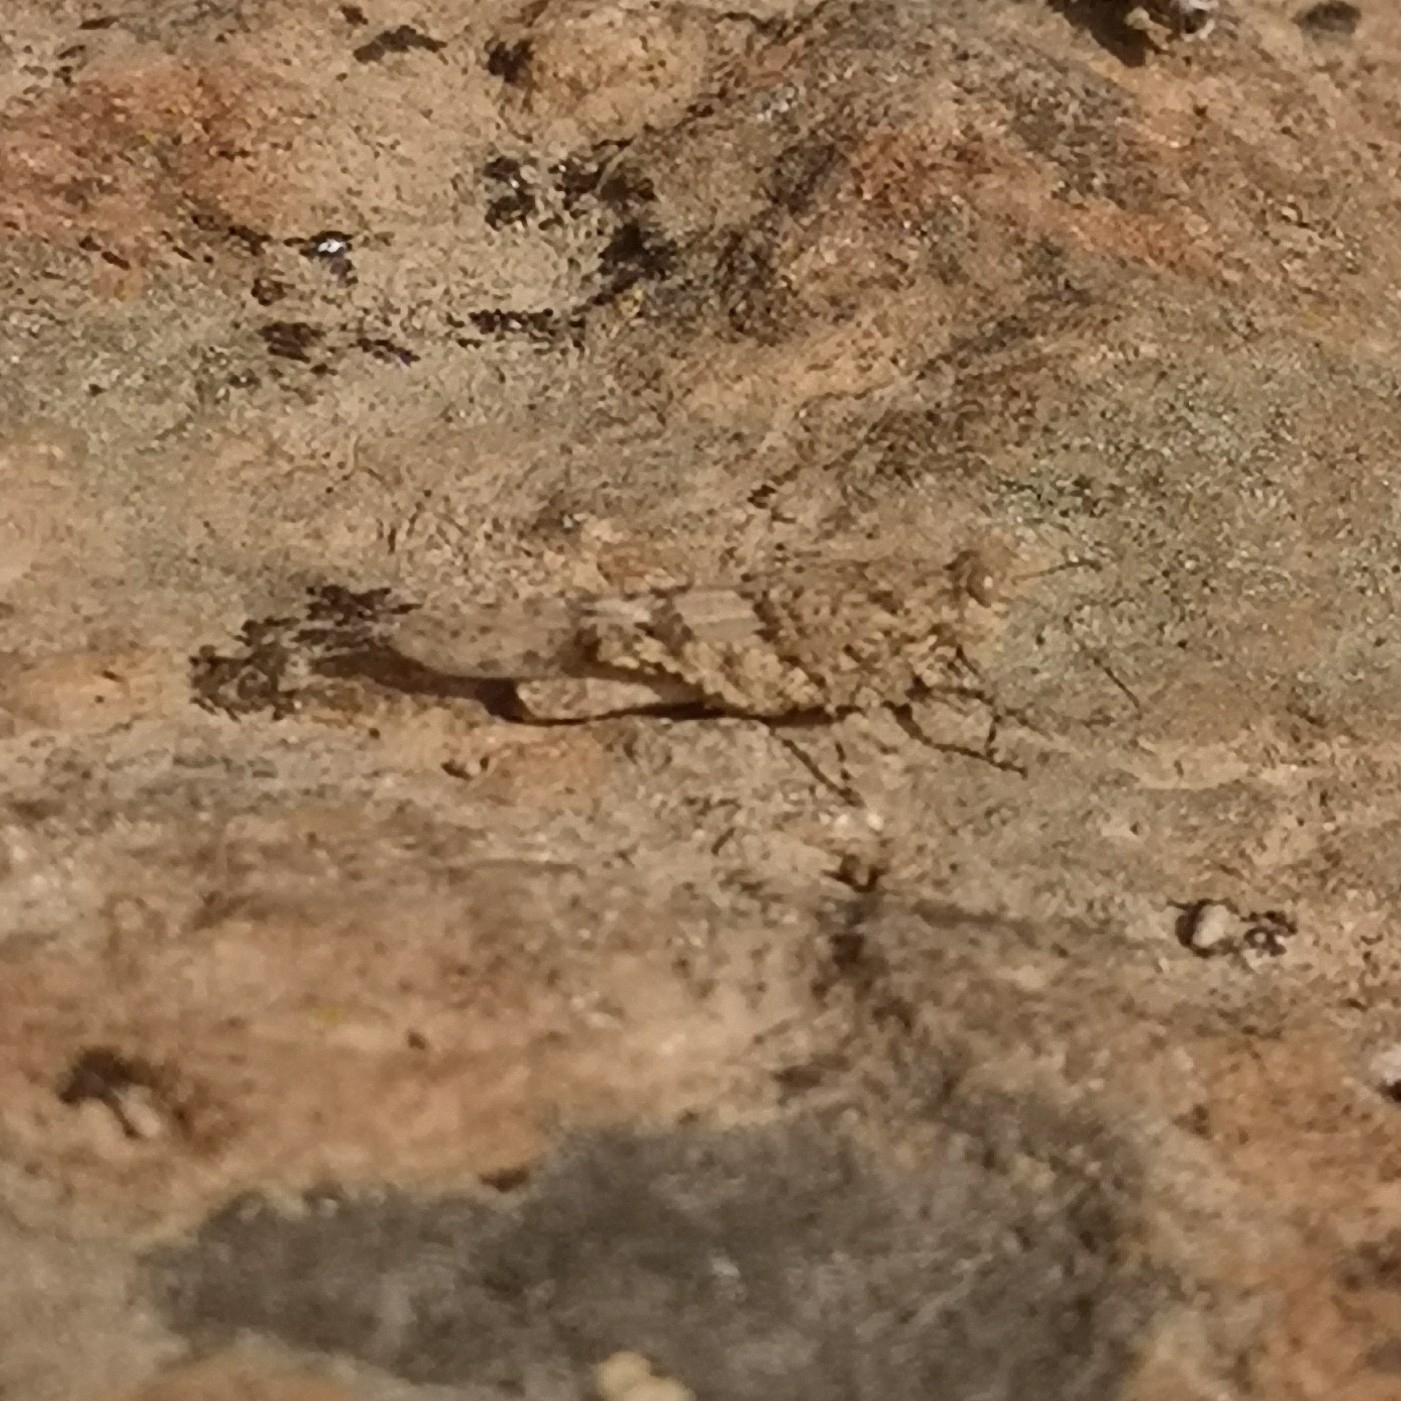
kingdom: Animalia
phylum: Arthropoda
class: Insecta
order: Orthoptera
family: Acrididae
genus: Acrotylus
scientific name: Acrotylus insubricus
